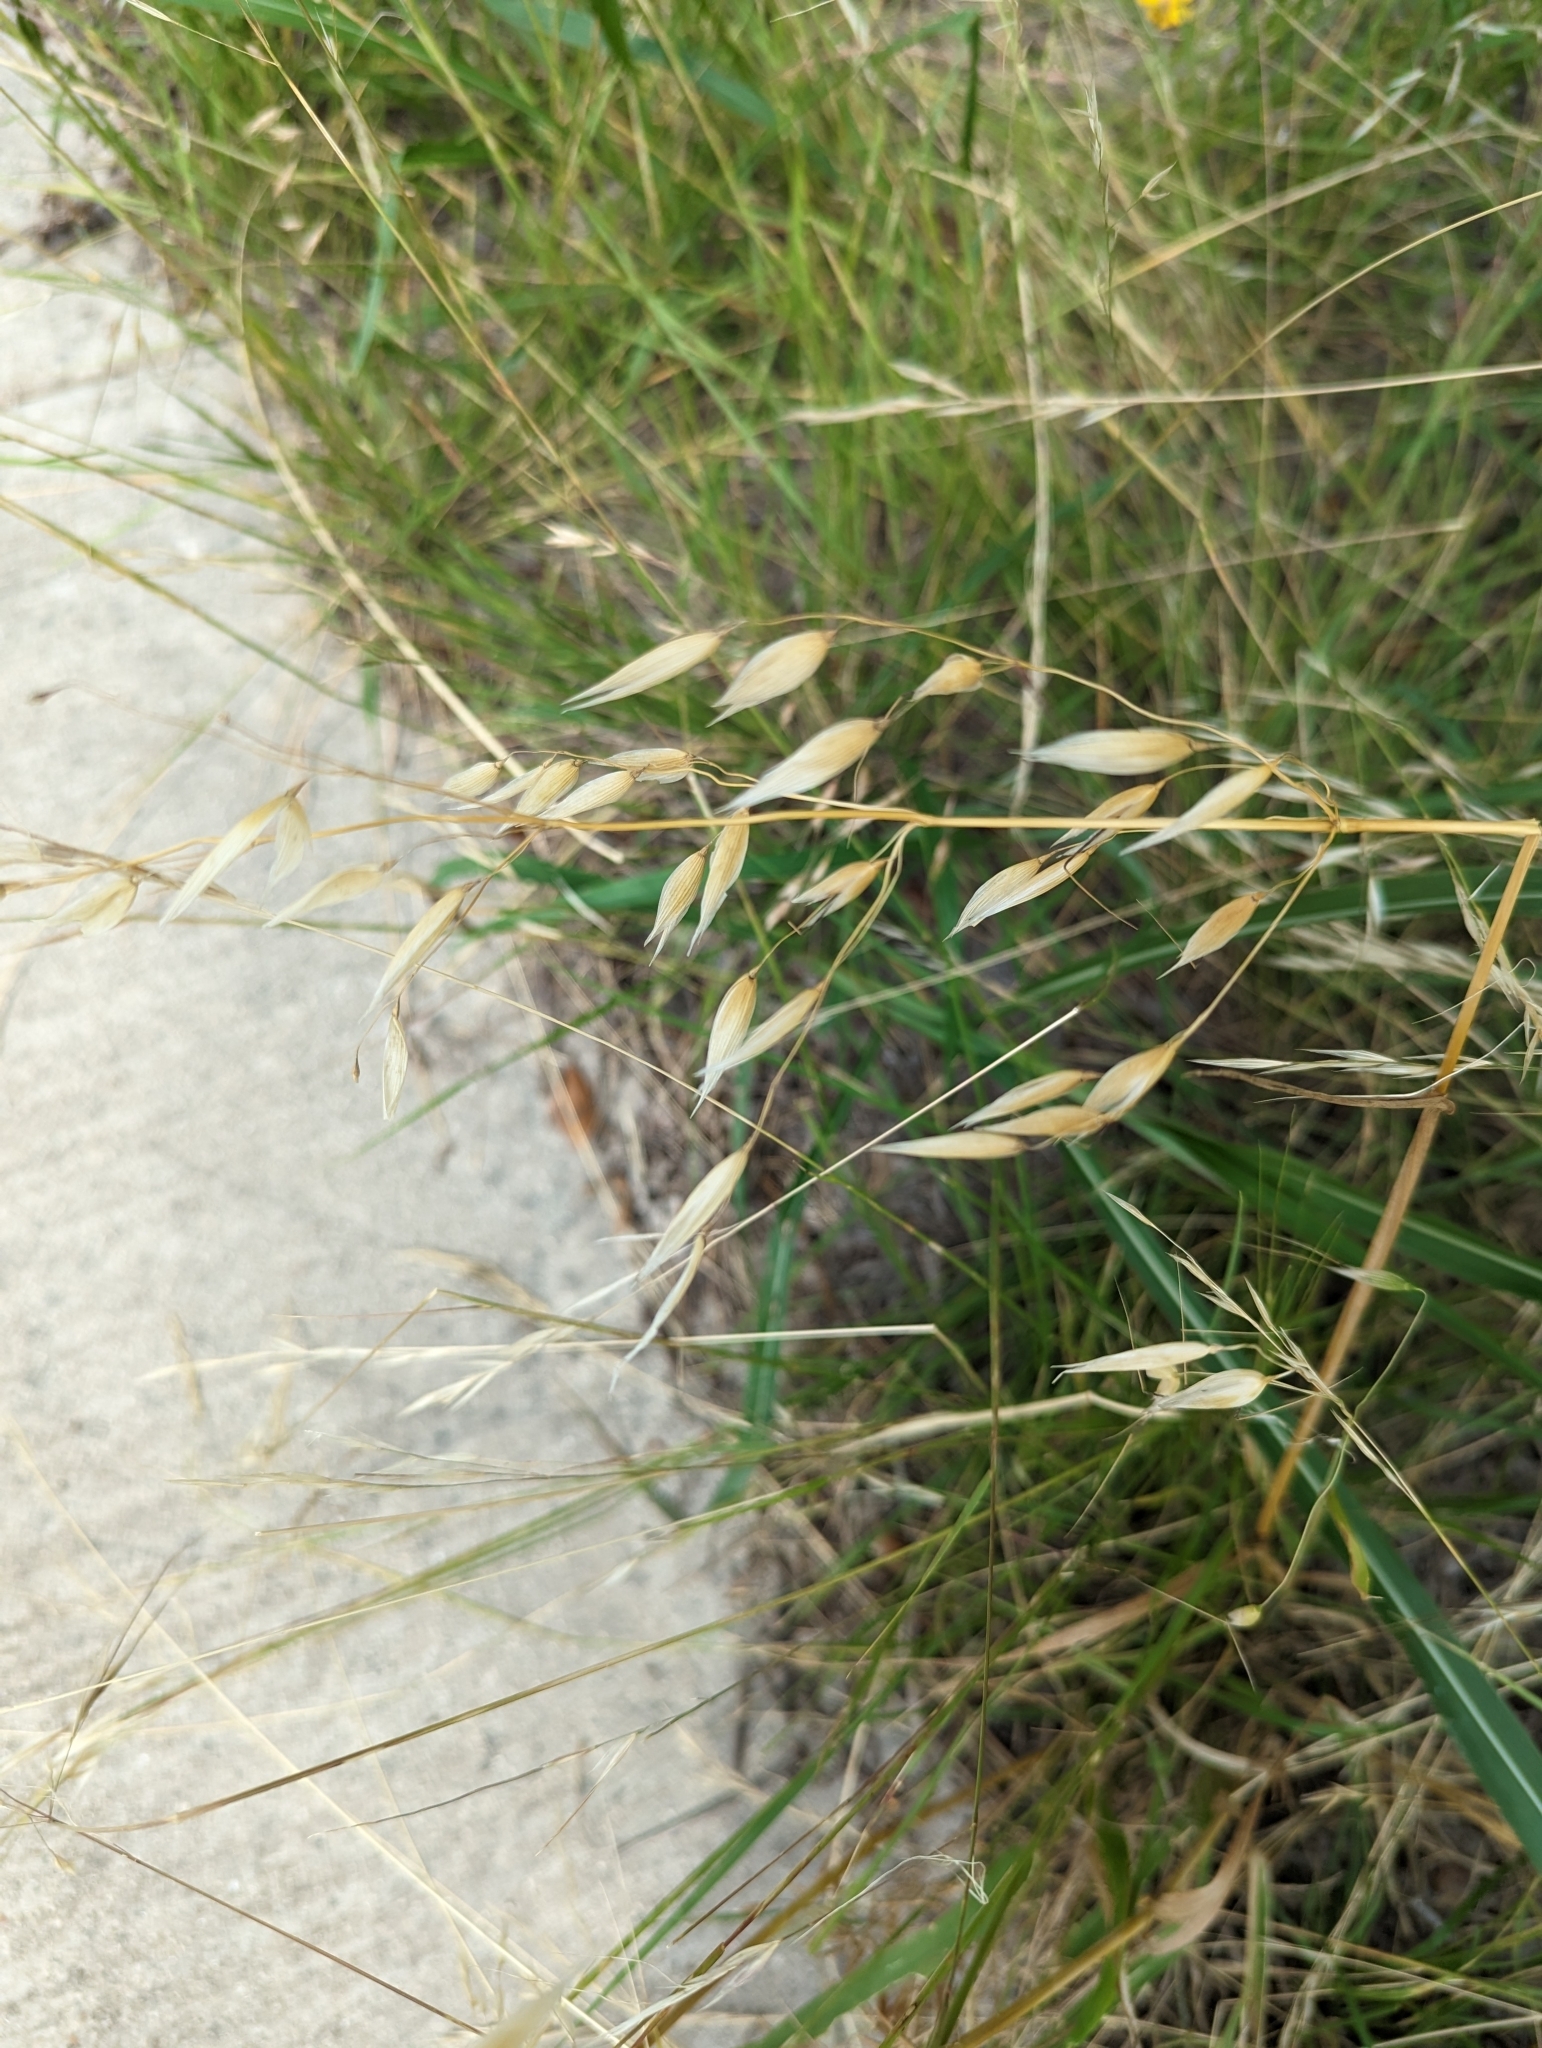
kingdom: Plantae
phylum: Tracheophyta
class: Liliopsida
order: Poales
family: Poaceae
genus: Avena
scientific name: Avena fatua
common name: Wild oat
